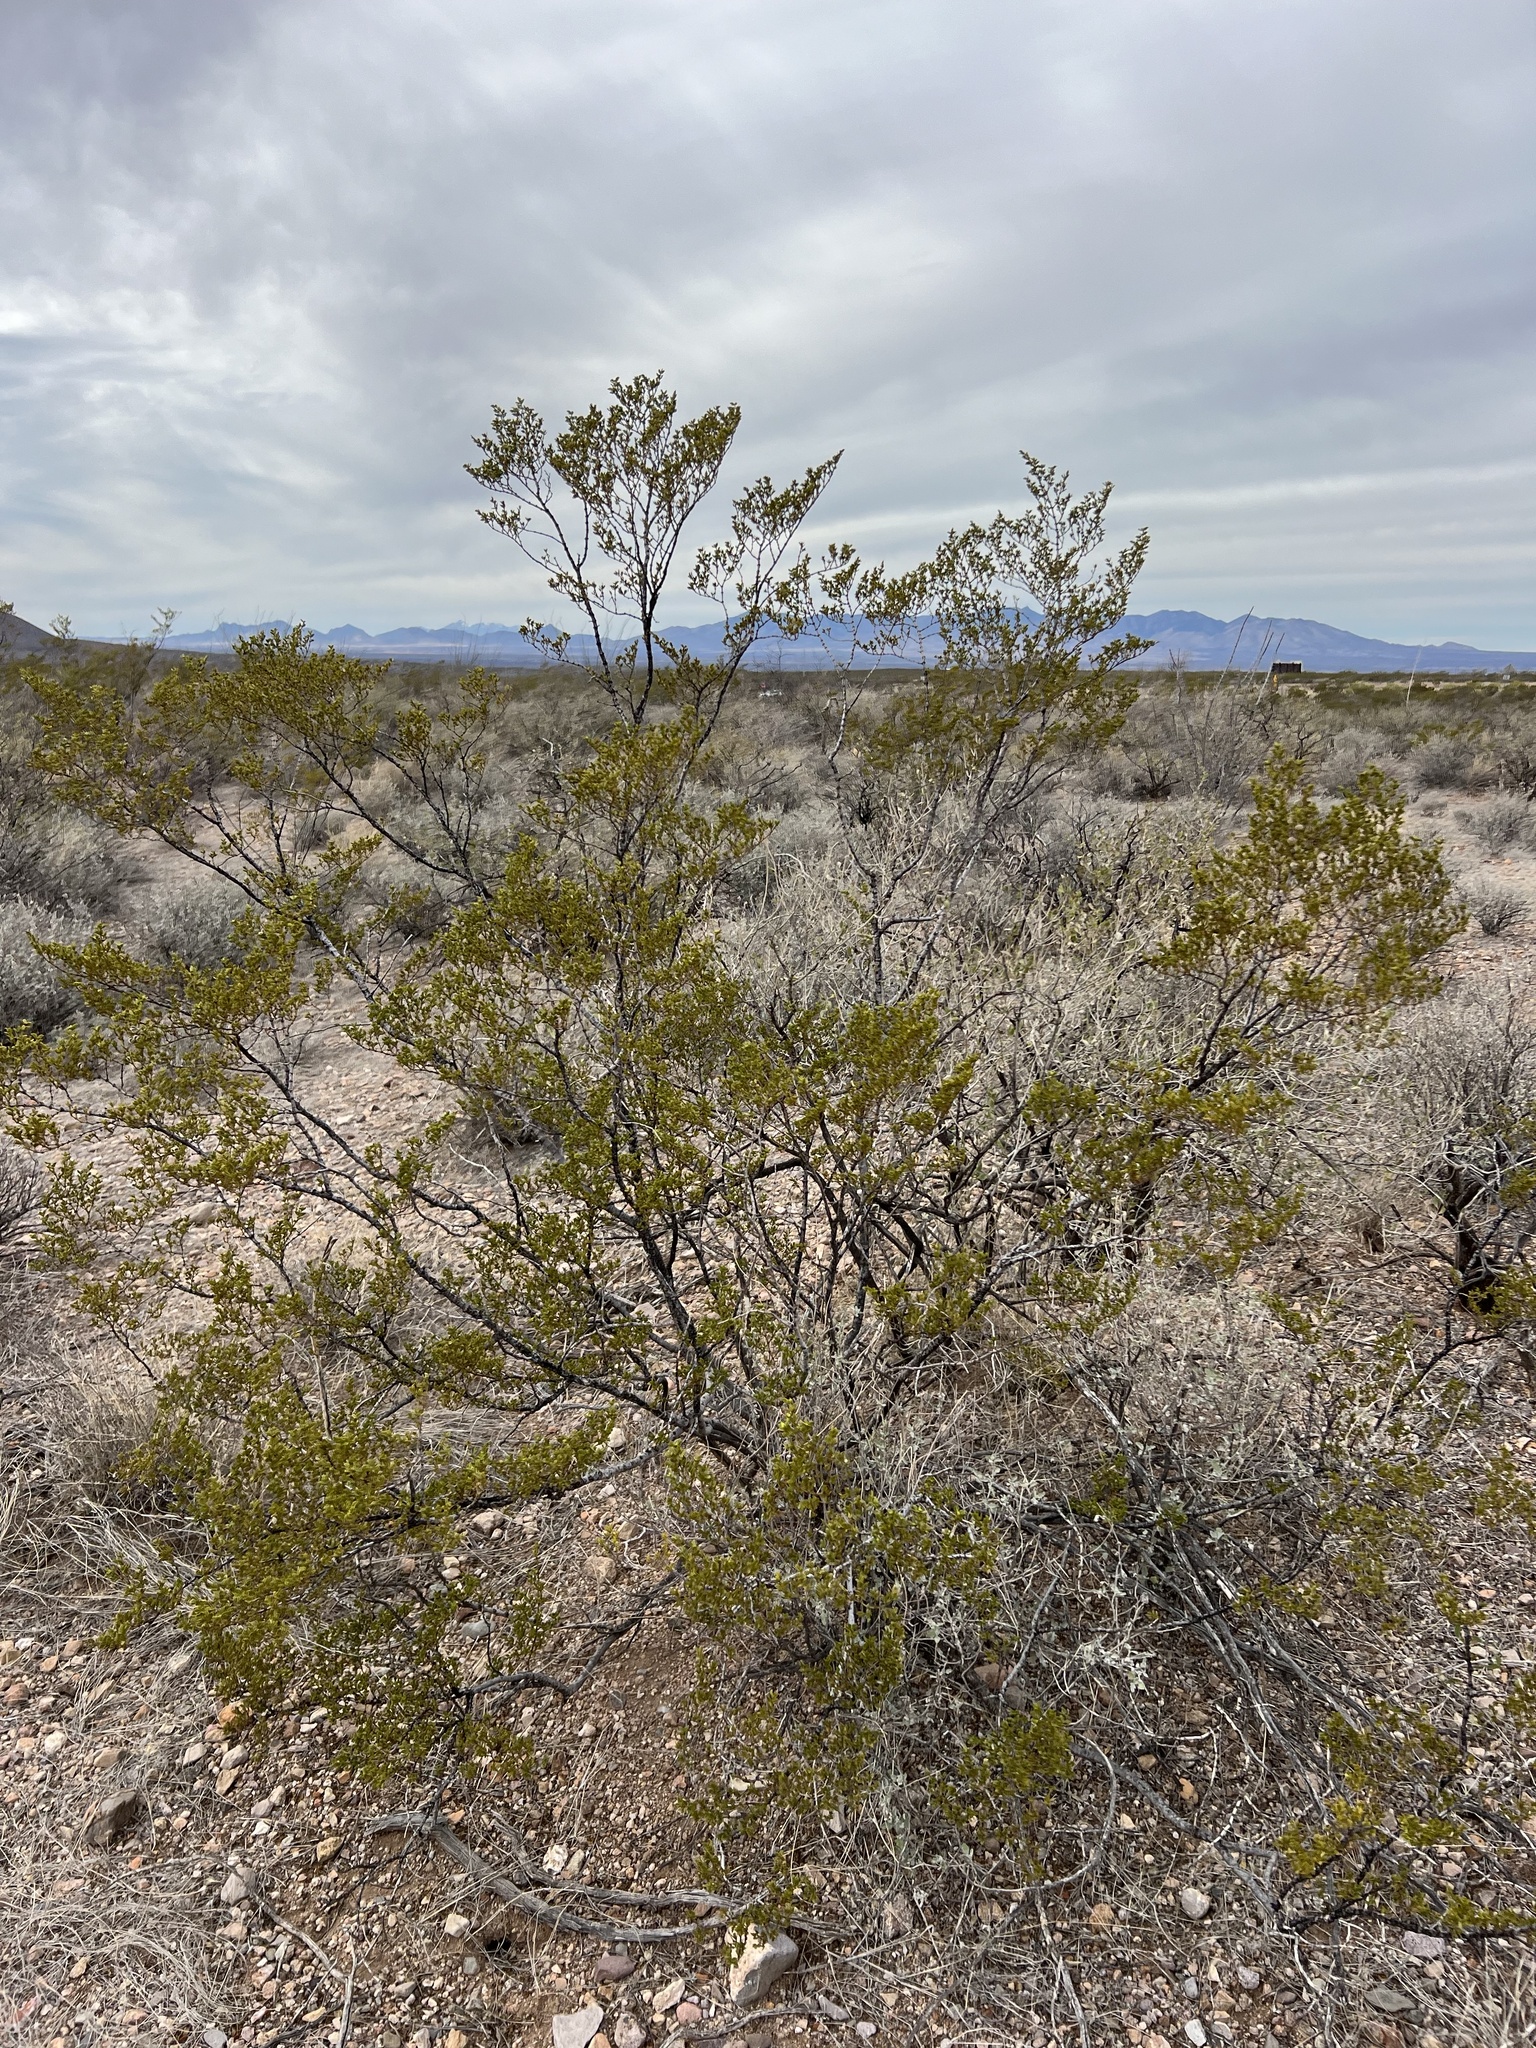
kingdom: Plantae
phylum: Tracheophyta
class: Magnoliopsida
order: Zygophyllales
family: Zygophyllaceae
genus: Larrea
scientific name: Larrea tridentata
